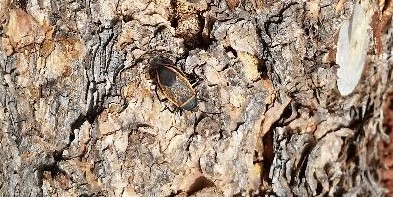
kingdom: Animalia
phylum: Arthropoda
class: Insecta
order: Hemiptera
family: Largidae
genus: Largus
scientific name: Largus succinctus
